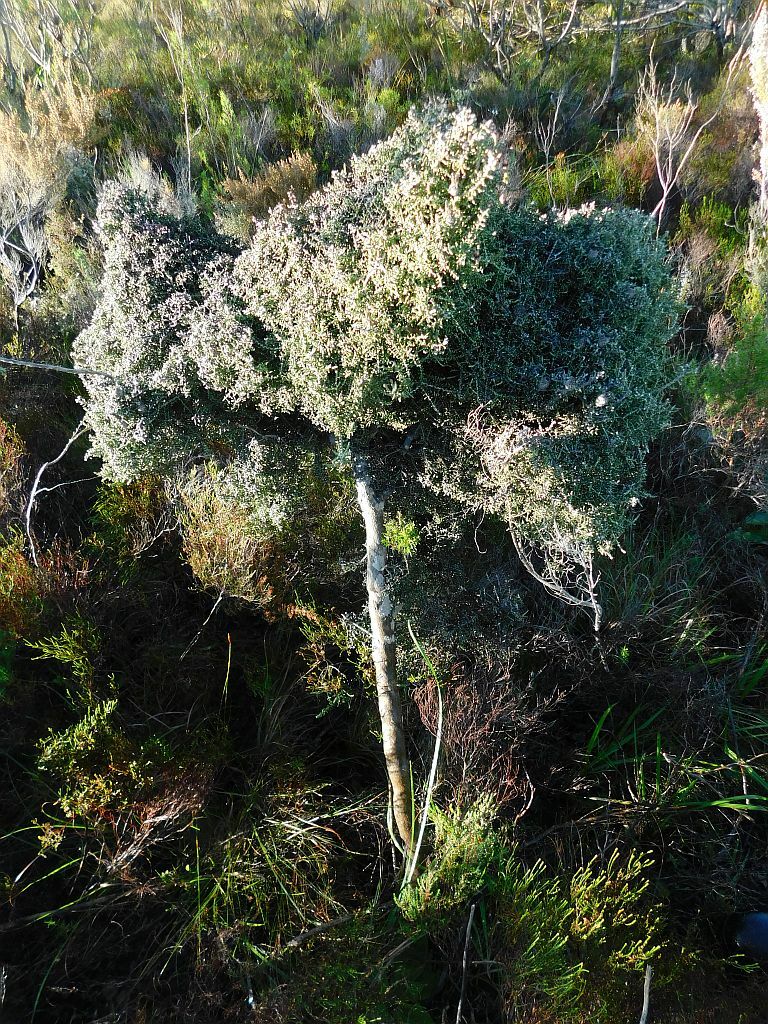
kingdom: Plantae
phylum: Tracheophyta
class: Magnoliopsida
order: Asterales
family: Asteraceae
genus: Phaenocoma
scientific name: Phaenocoma prolifera
